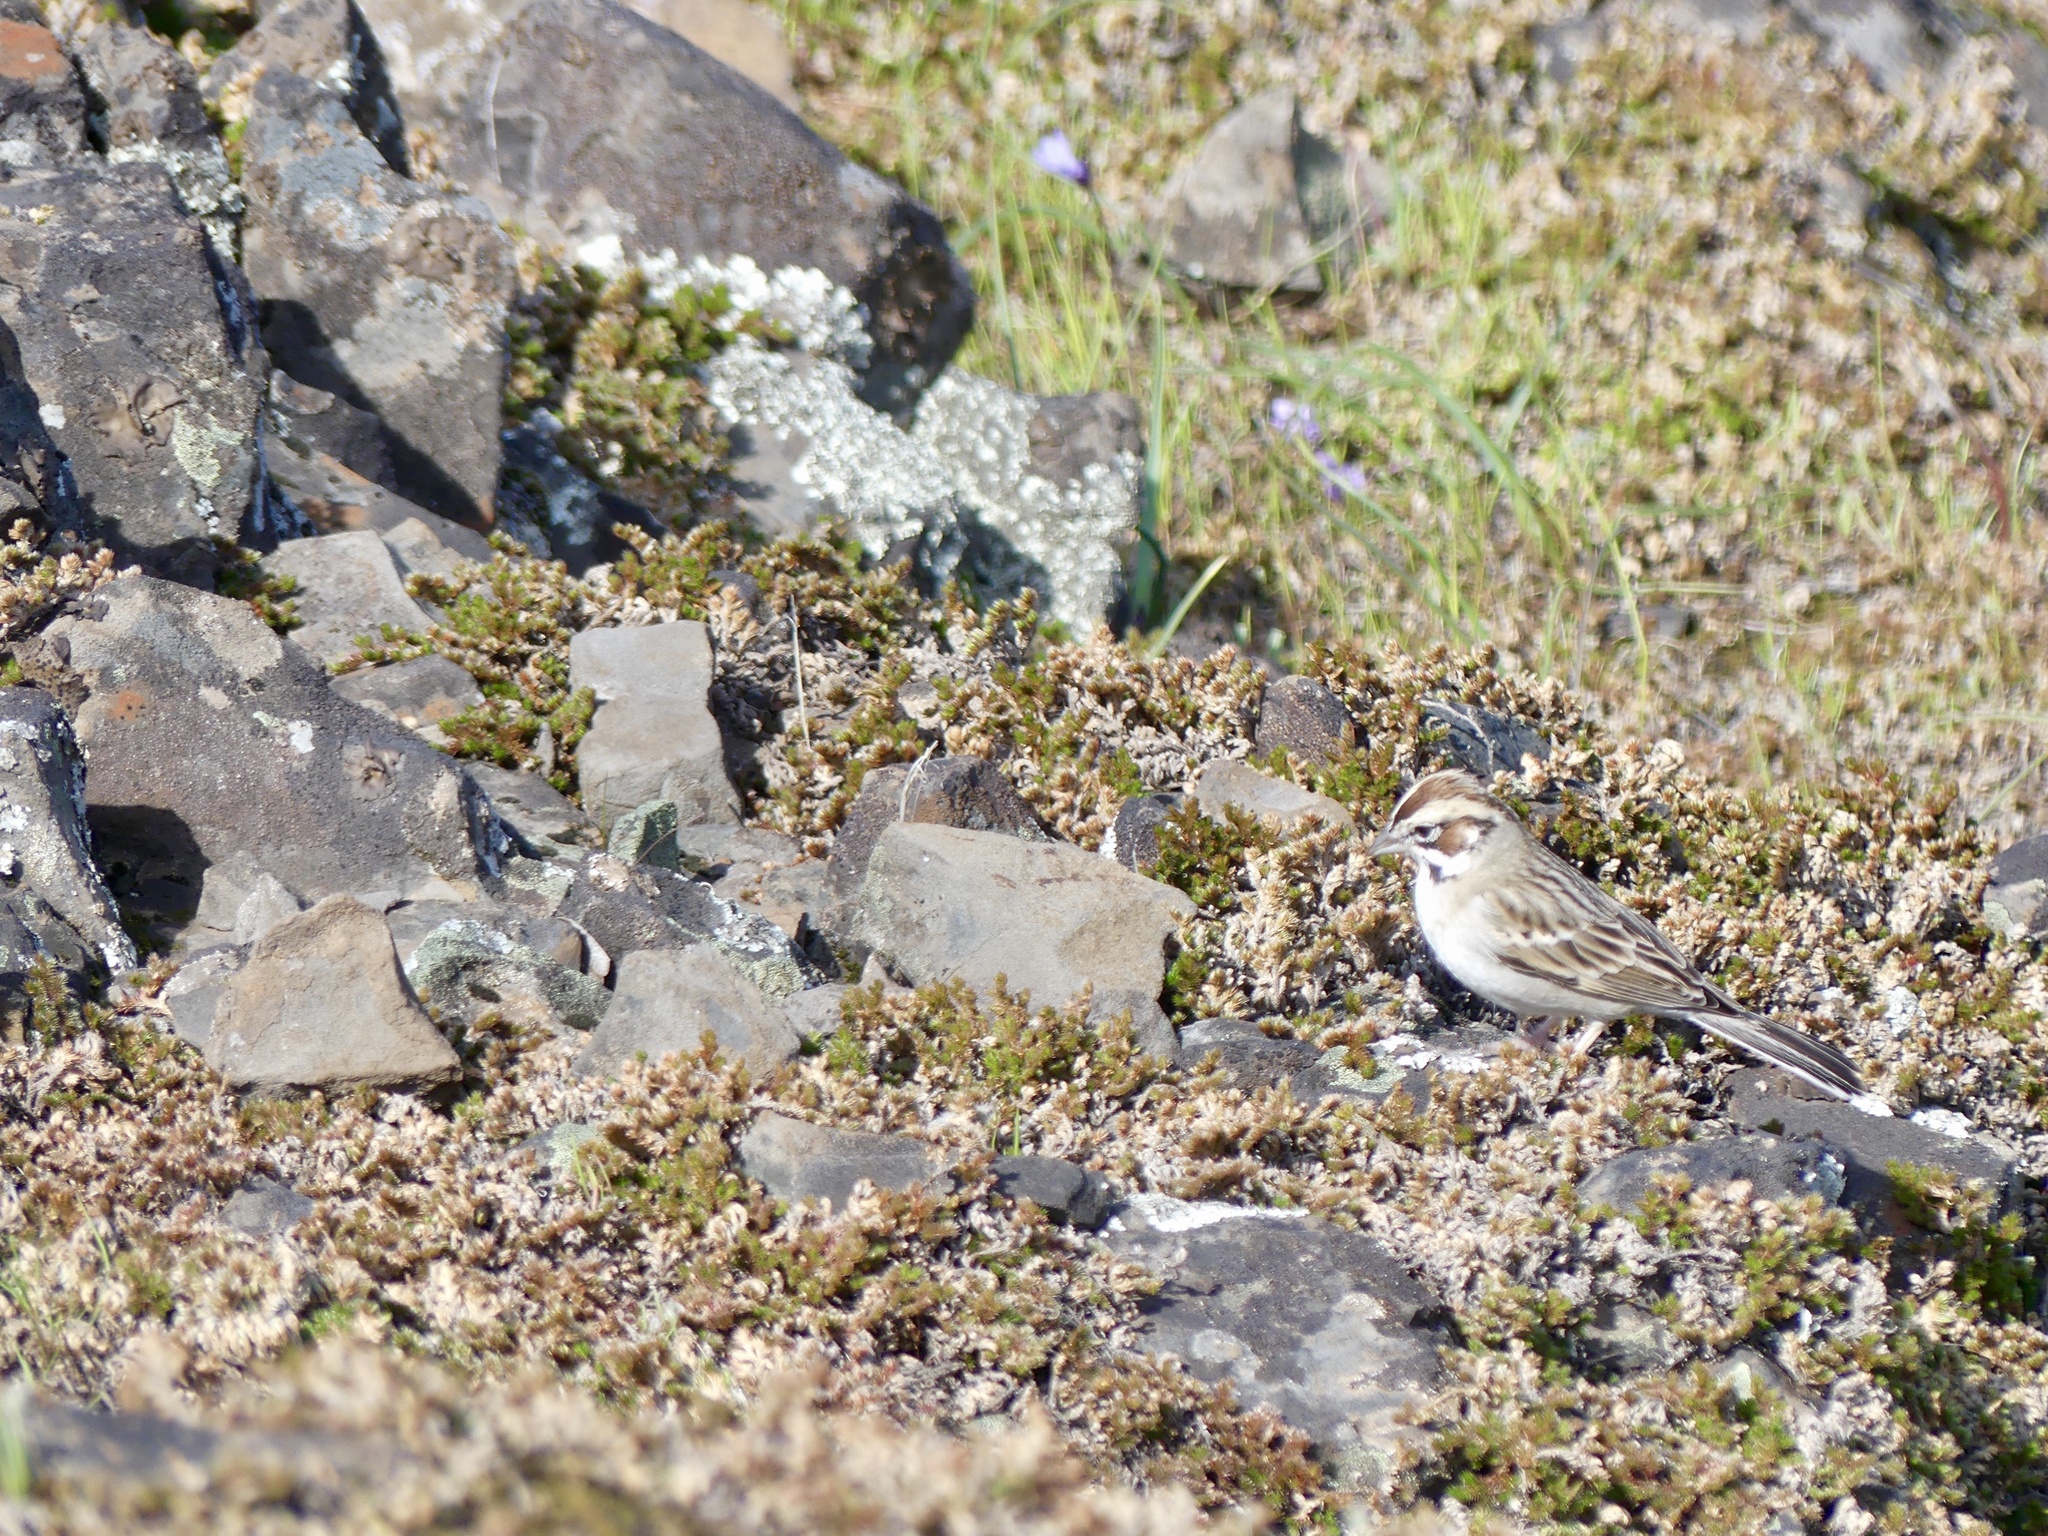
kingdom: Animalia
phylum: Chordata
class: Aves
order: Passeriformes
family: Passerellidae
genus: Chondestes
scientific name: Chondestes grammacus
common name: Lark sparrow
